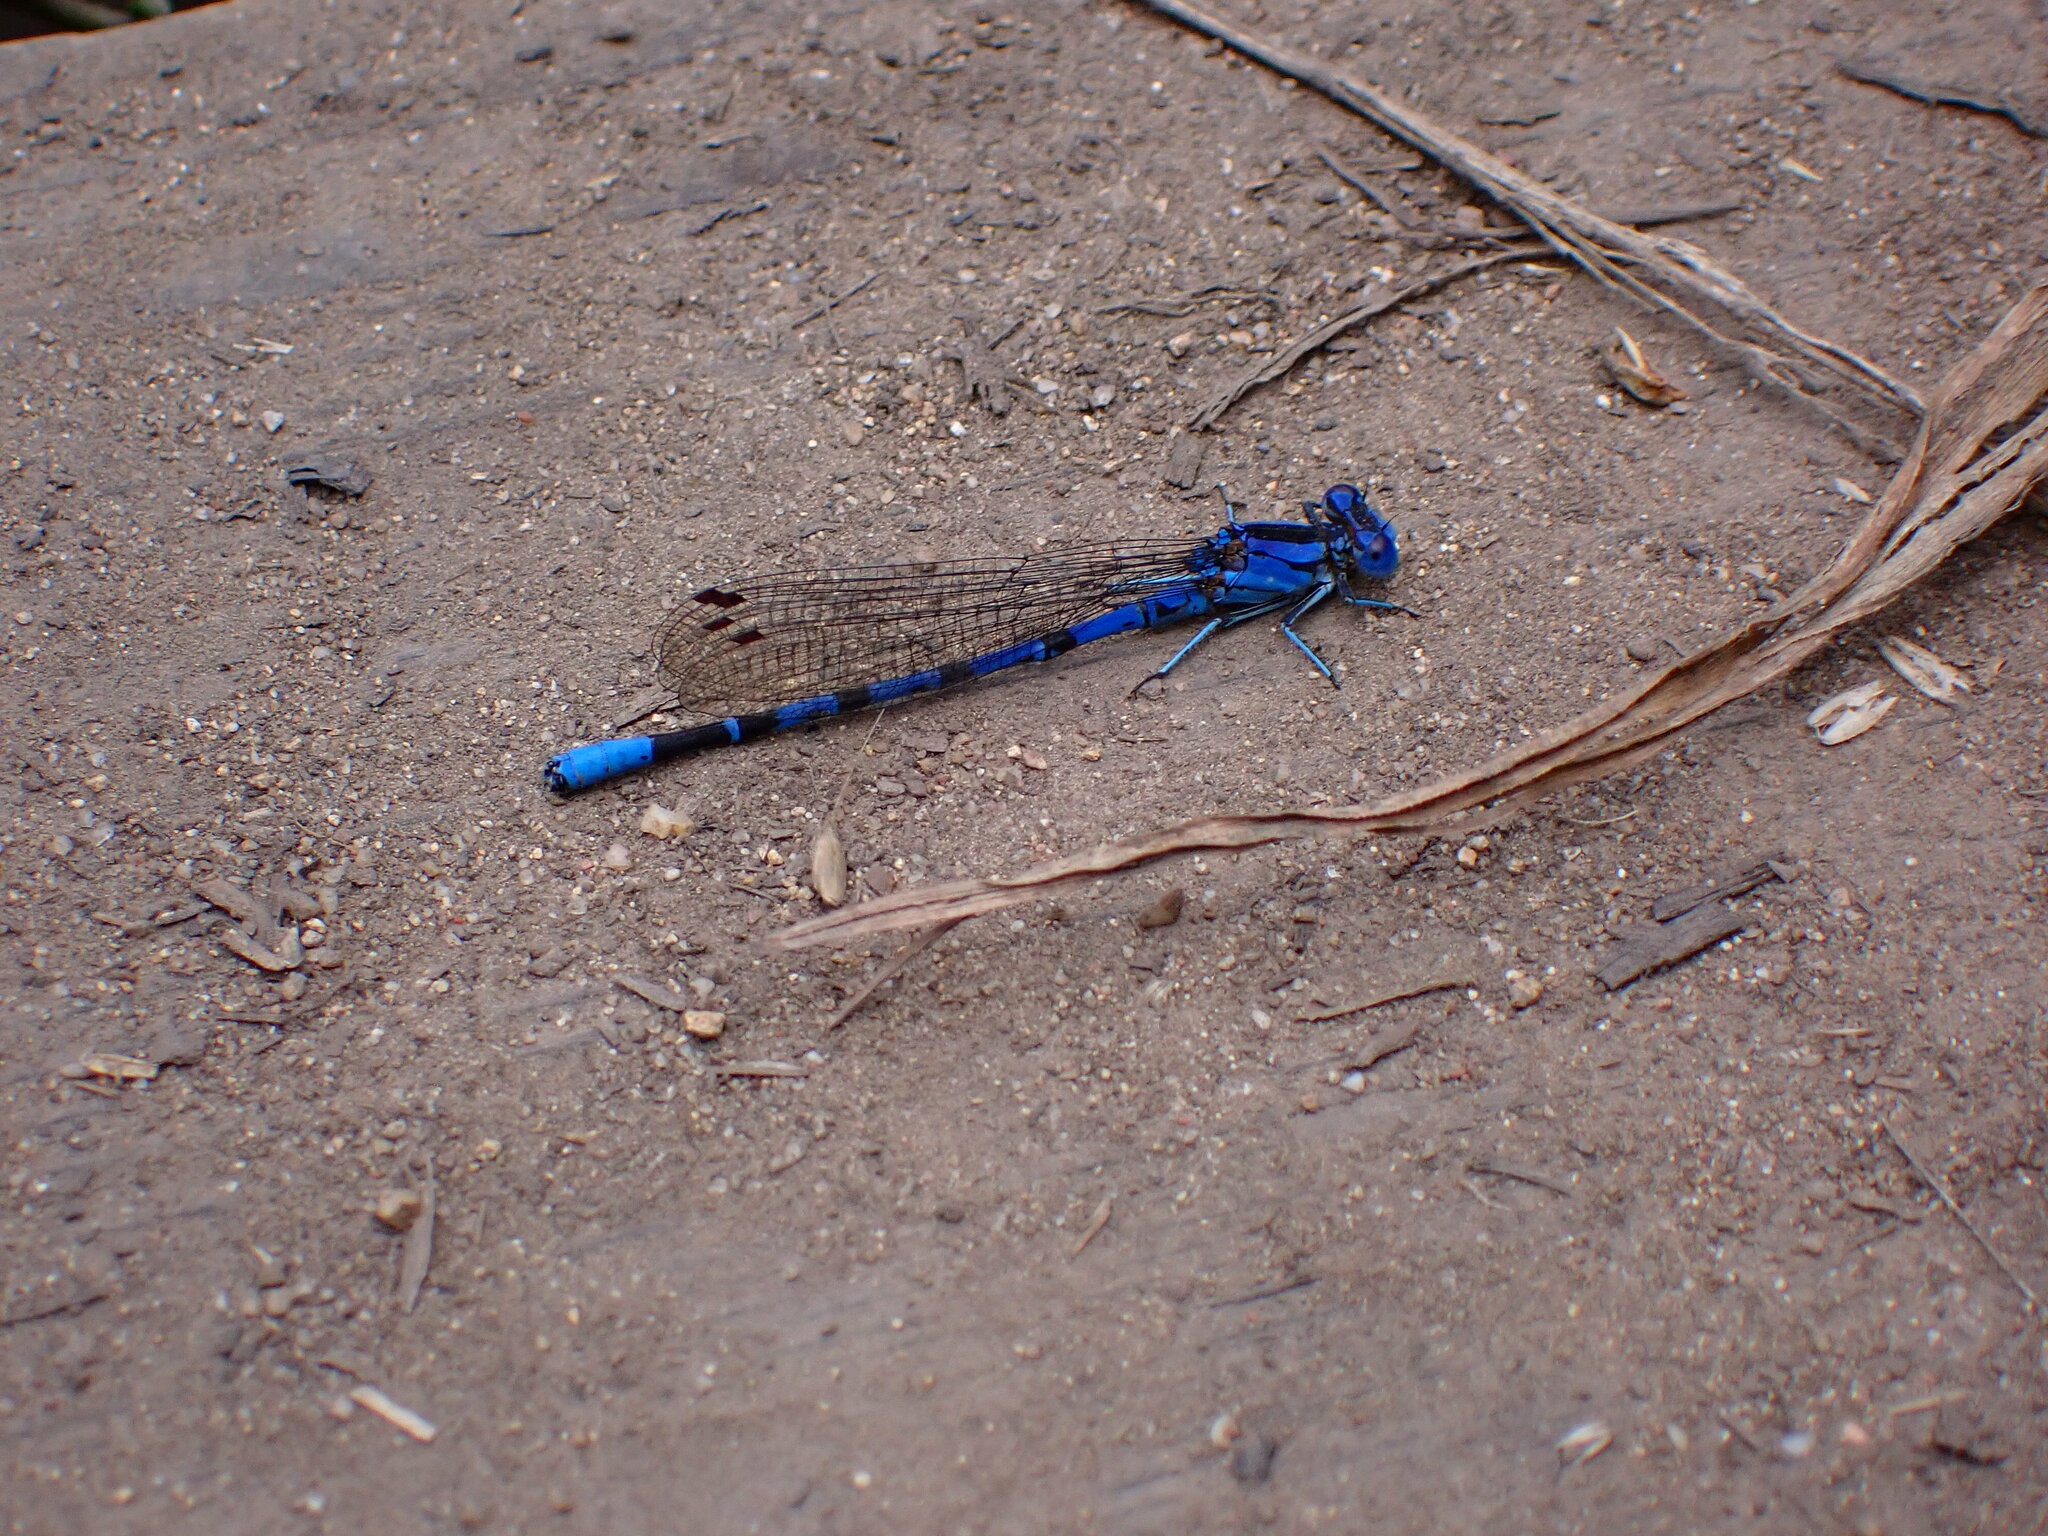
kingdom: Animalia
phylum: Arthropoda
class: Insecta
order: Odonata
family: Coenagrionidae
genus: Argia
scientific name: Argia vivida
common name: Vivid dancer
